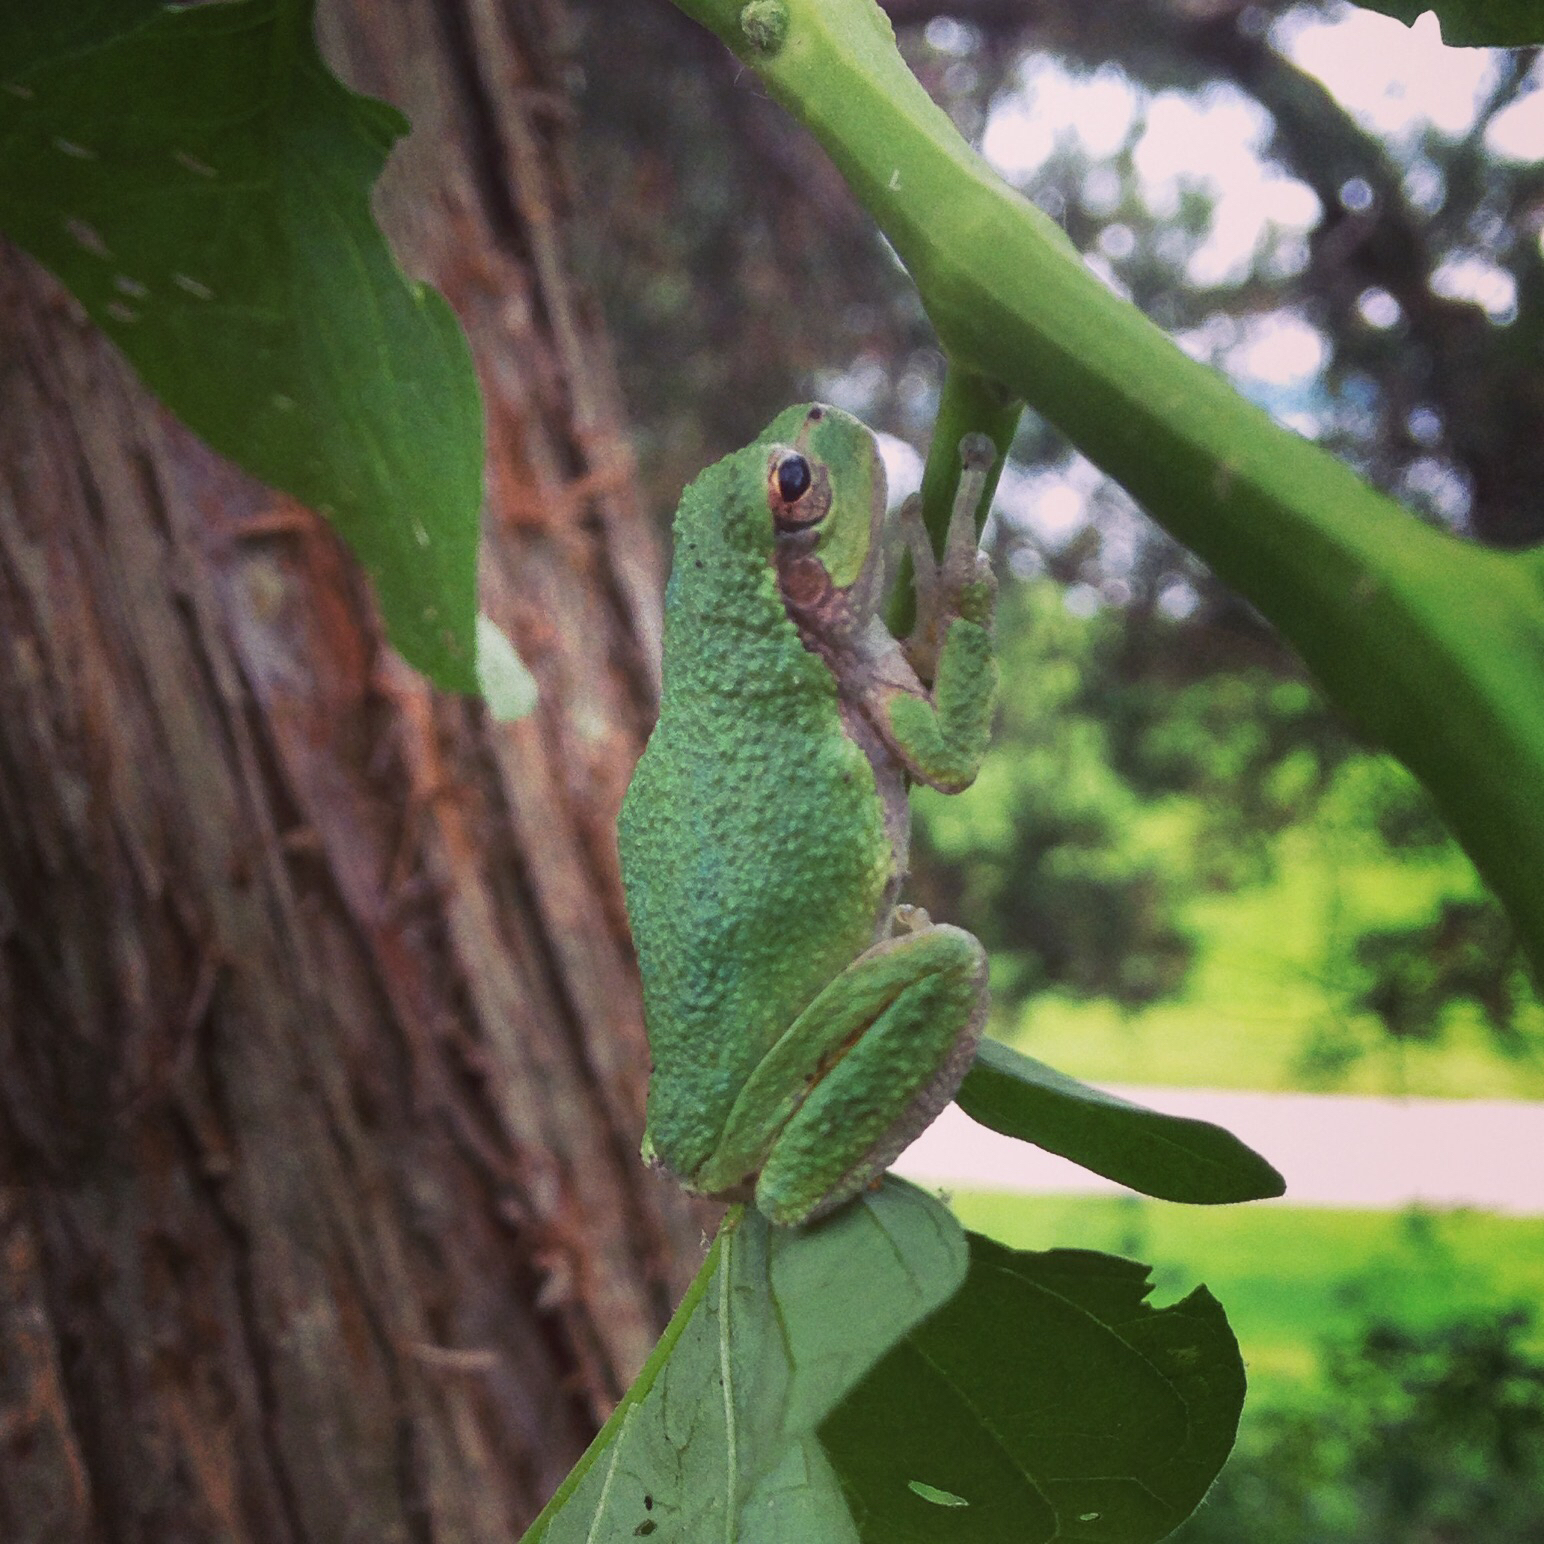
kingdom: Animalia
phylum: Chordata
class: Amphibia
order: Anura
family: Hylidae
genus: Dryophytes
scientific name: Dryophytes versicolor
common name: Gray treefrog
